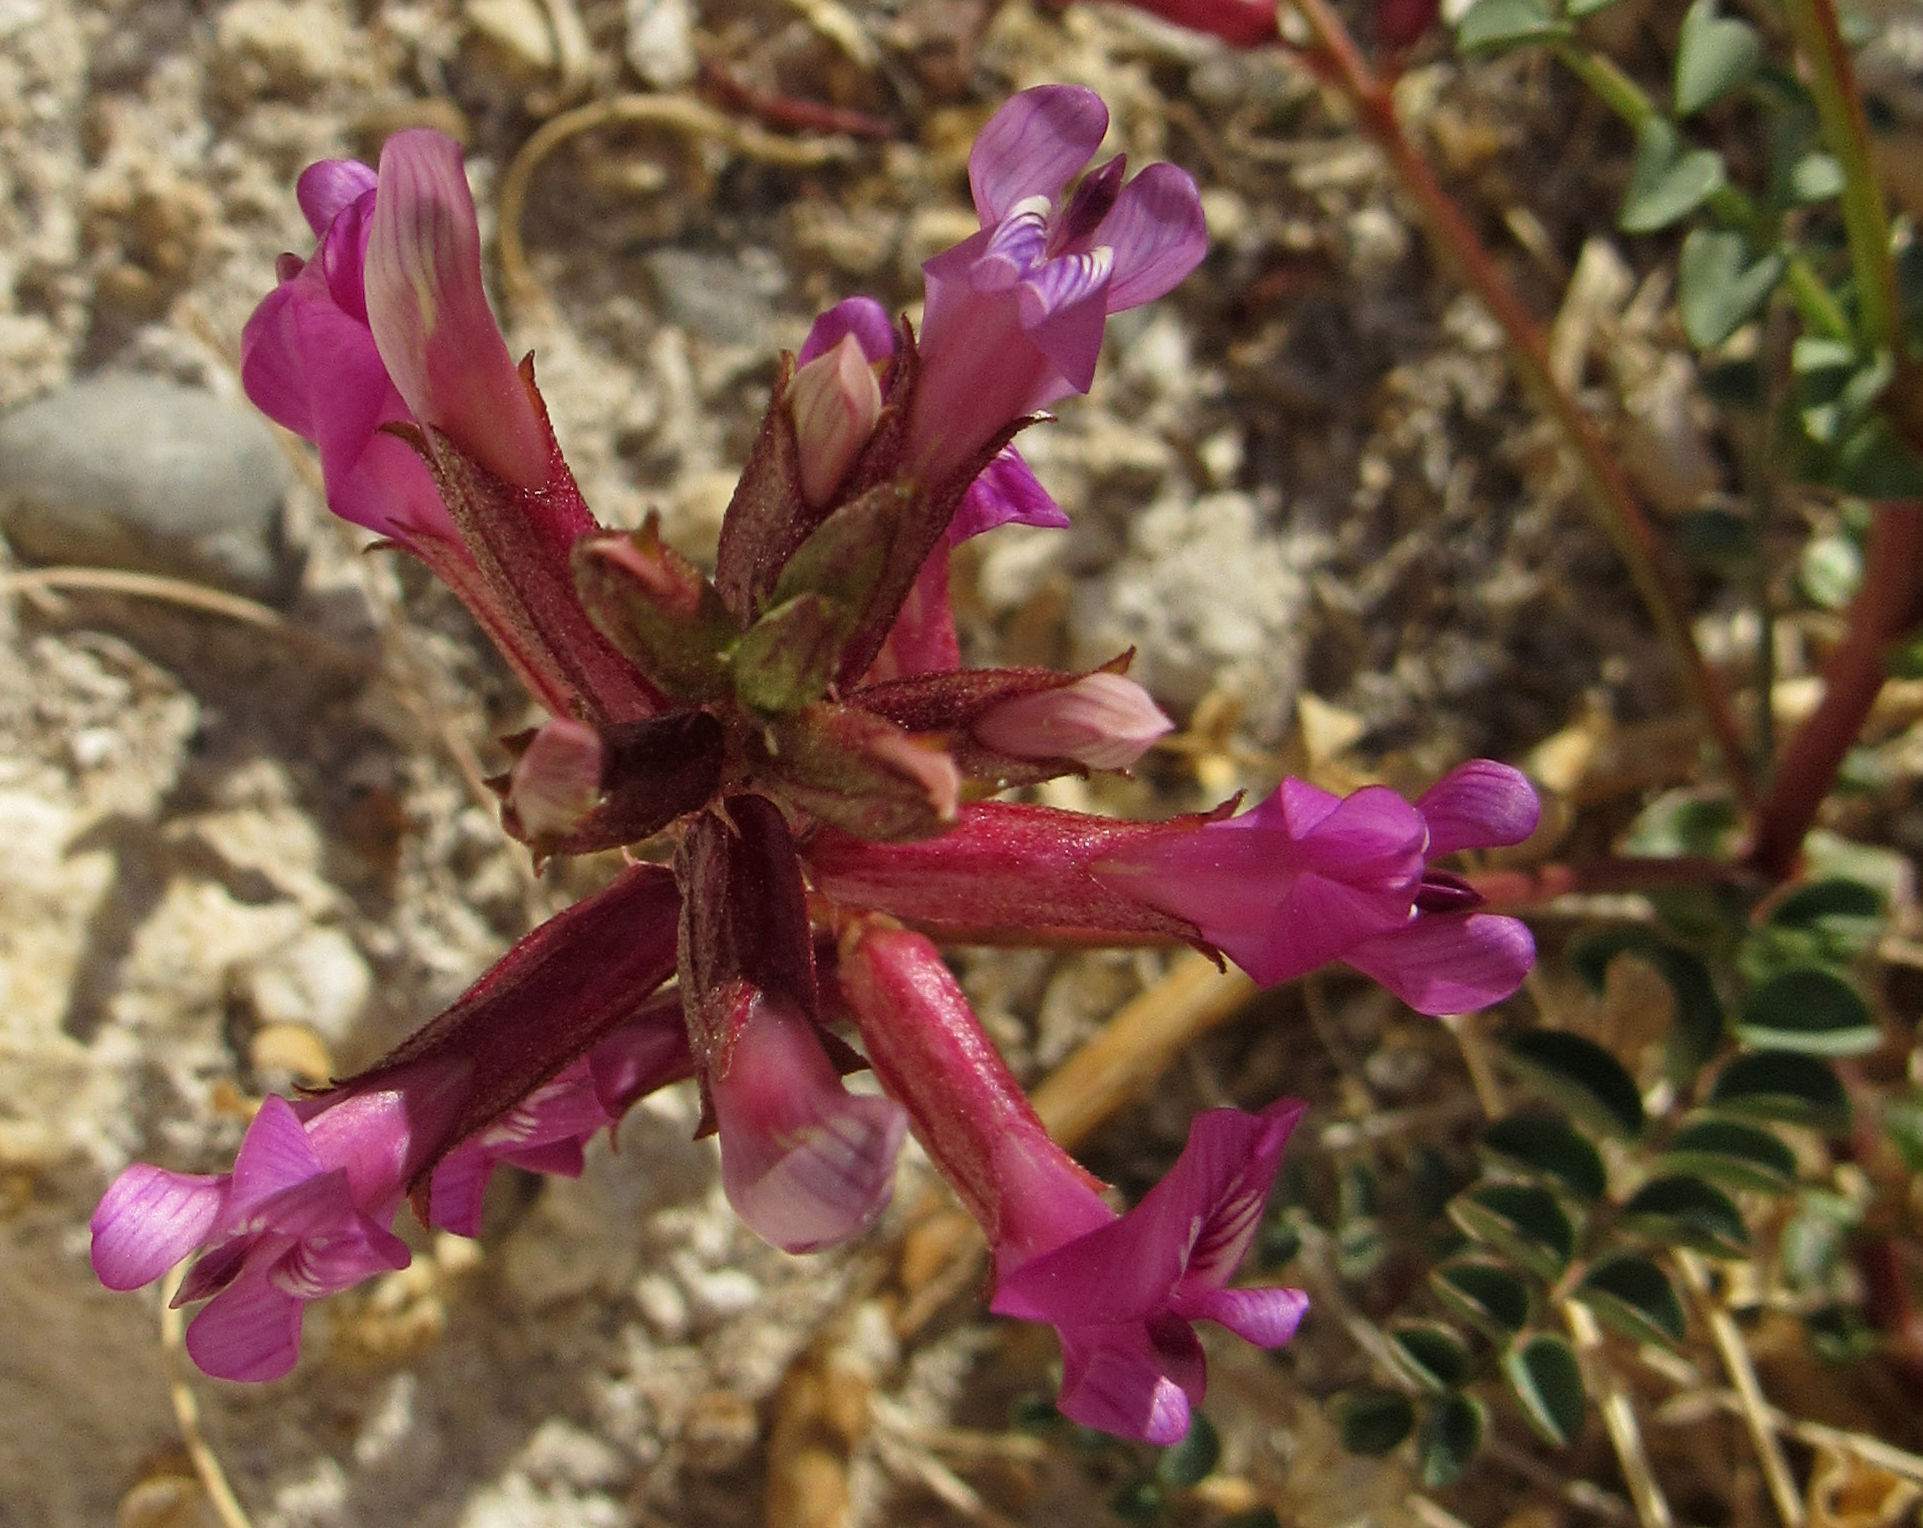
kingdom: Plantae
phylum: Tracheophyta
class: Magnoliopsida
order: Fabales
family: Fabaceae
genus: Astragalus
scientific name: Astragalus preussii
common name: Preuss's milk-vetch
